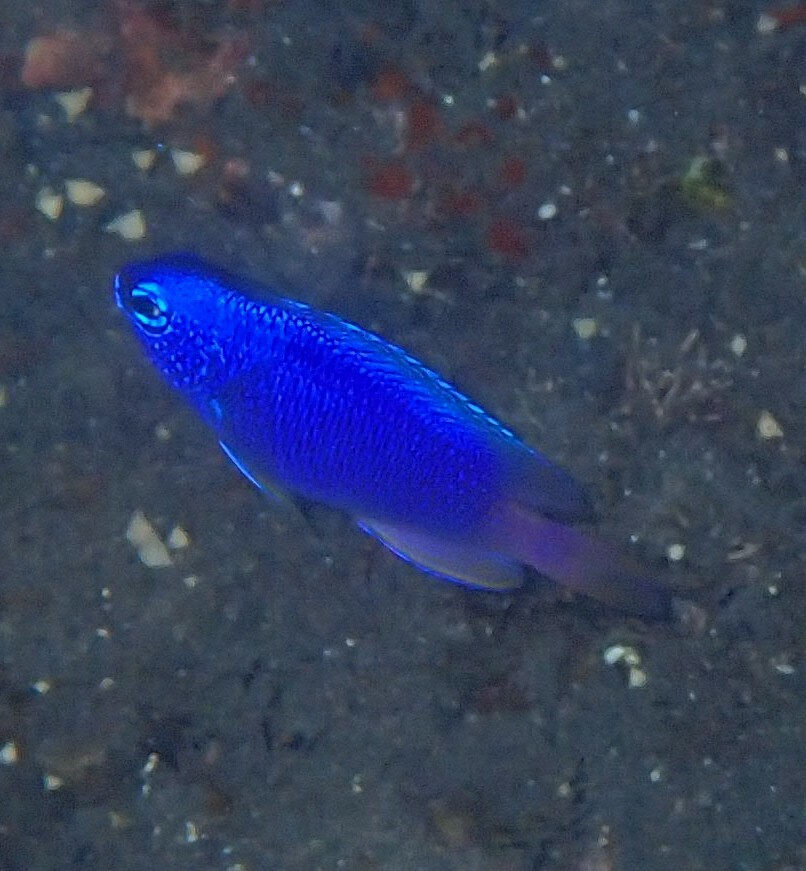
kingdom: Animalia
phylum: Chordata
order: Perciformes
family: Pomacentridae
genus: Pomacentrus
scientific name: Pomacentrus coelestis
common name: Neon damsel
